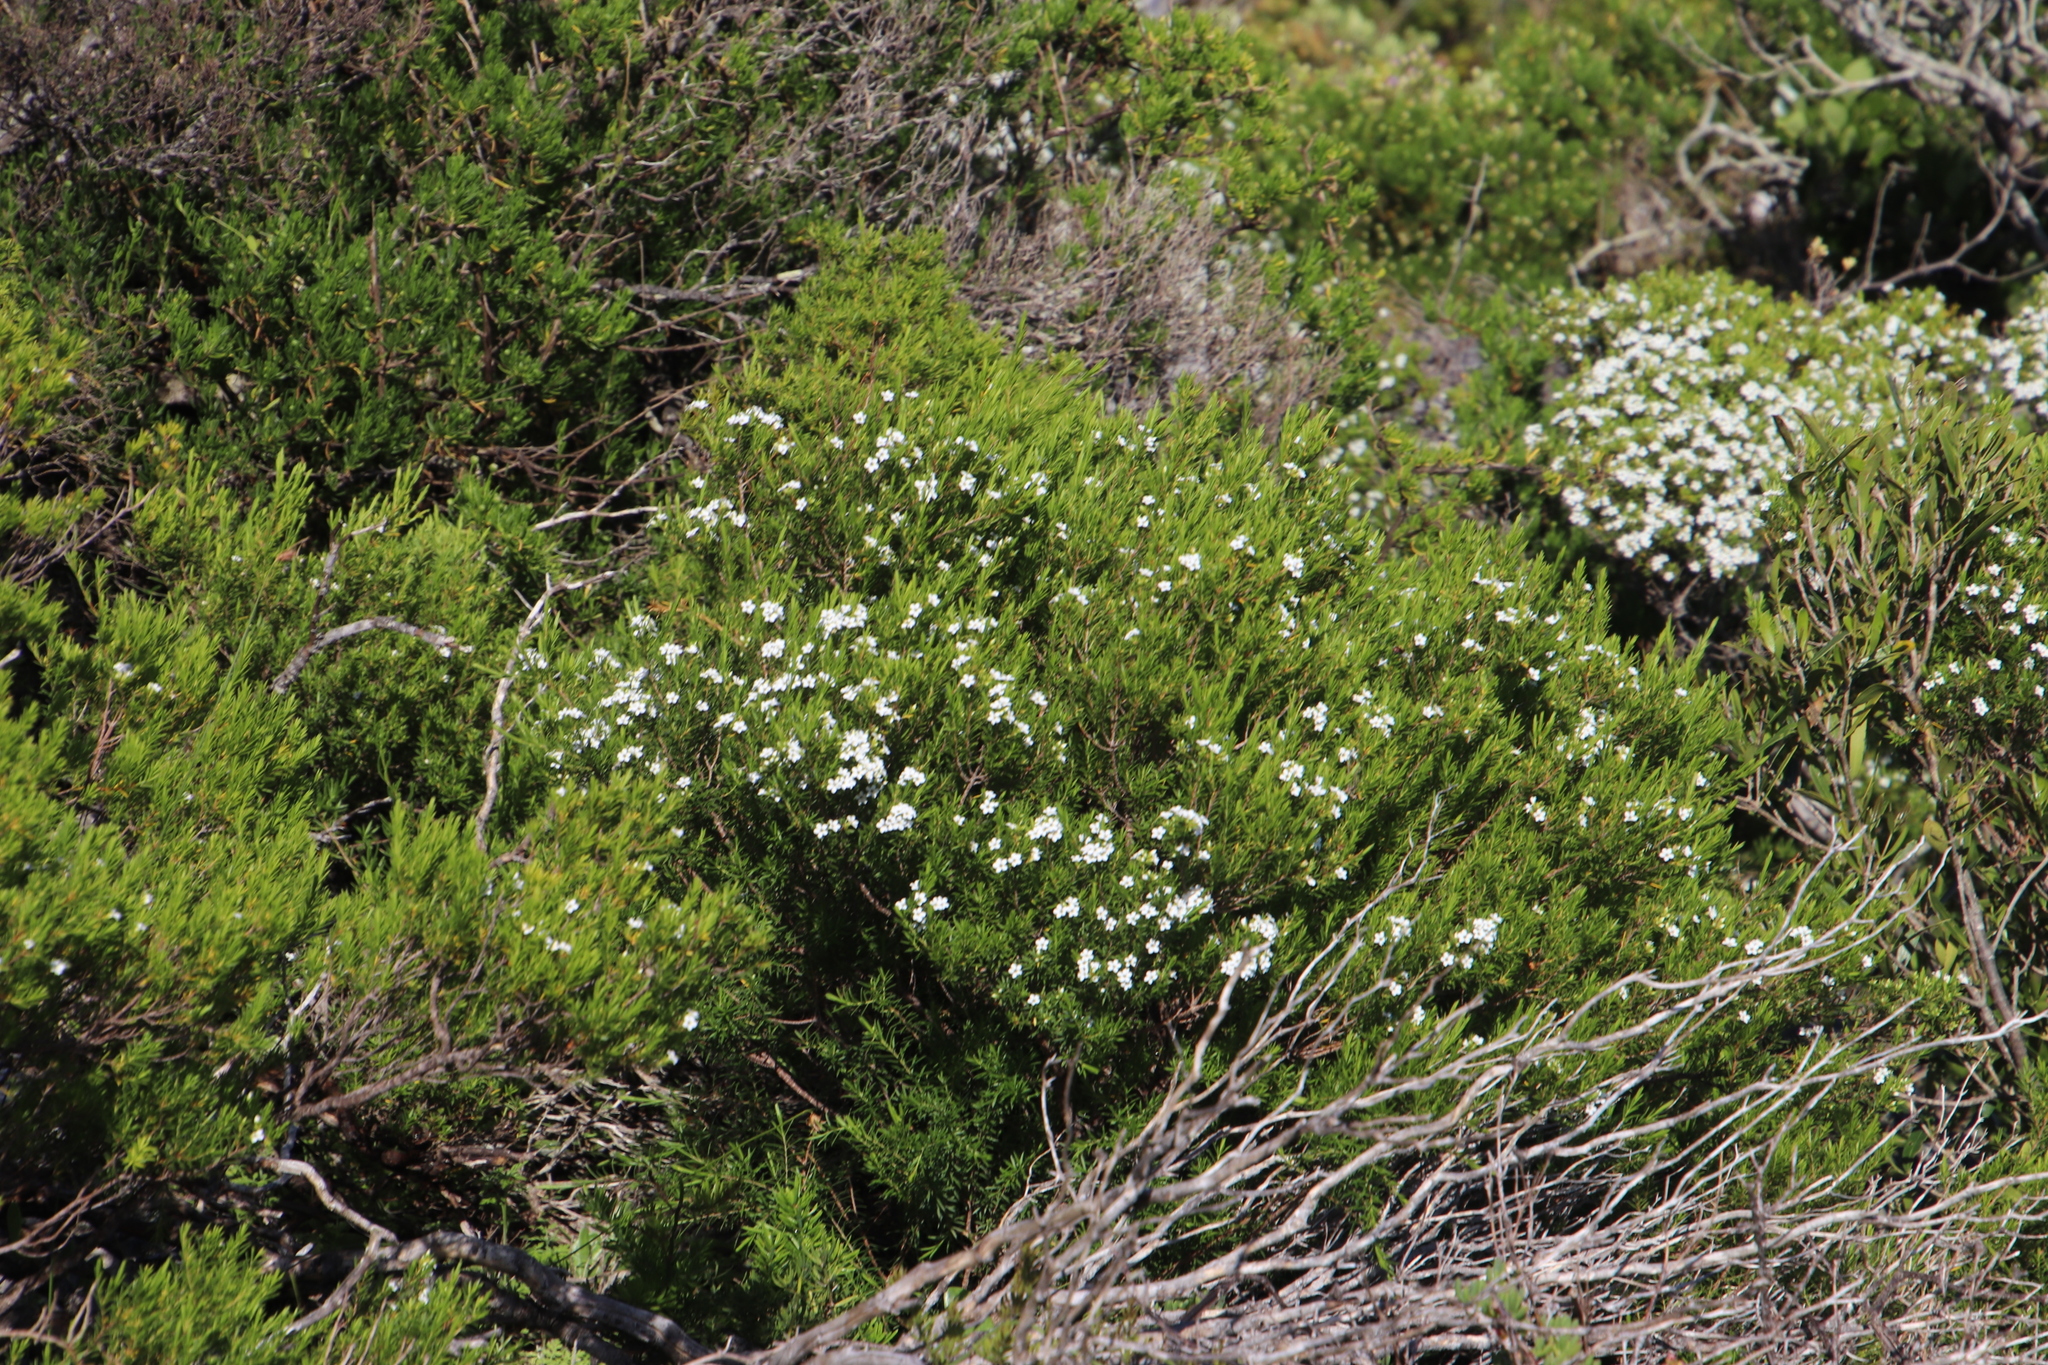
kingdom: Plantae
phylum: Tracheophyta
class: Magnoliopsida
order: Sapindales
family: Rutaceae
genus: Coleonema
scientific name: Coleonema album
